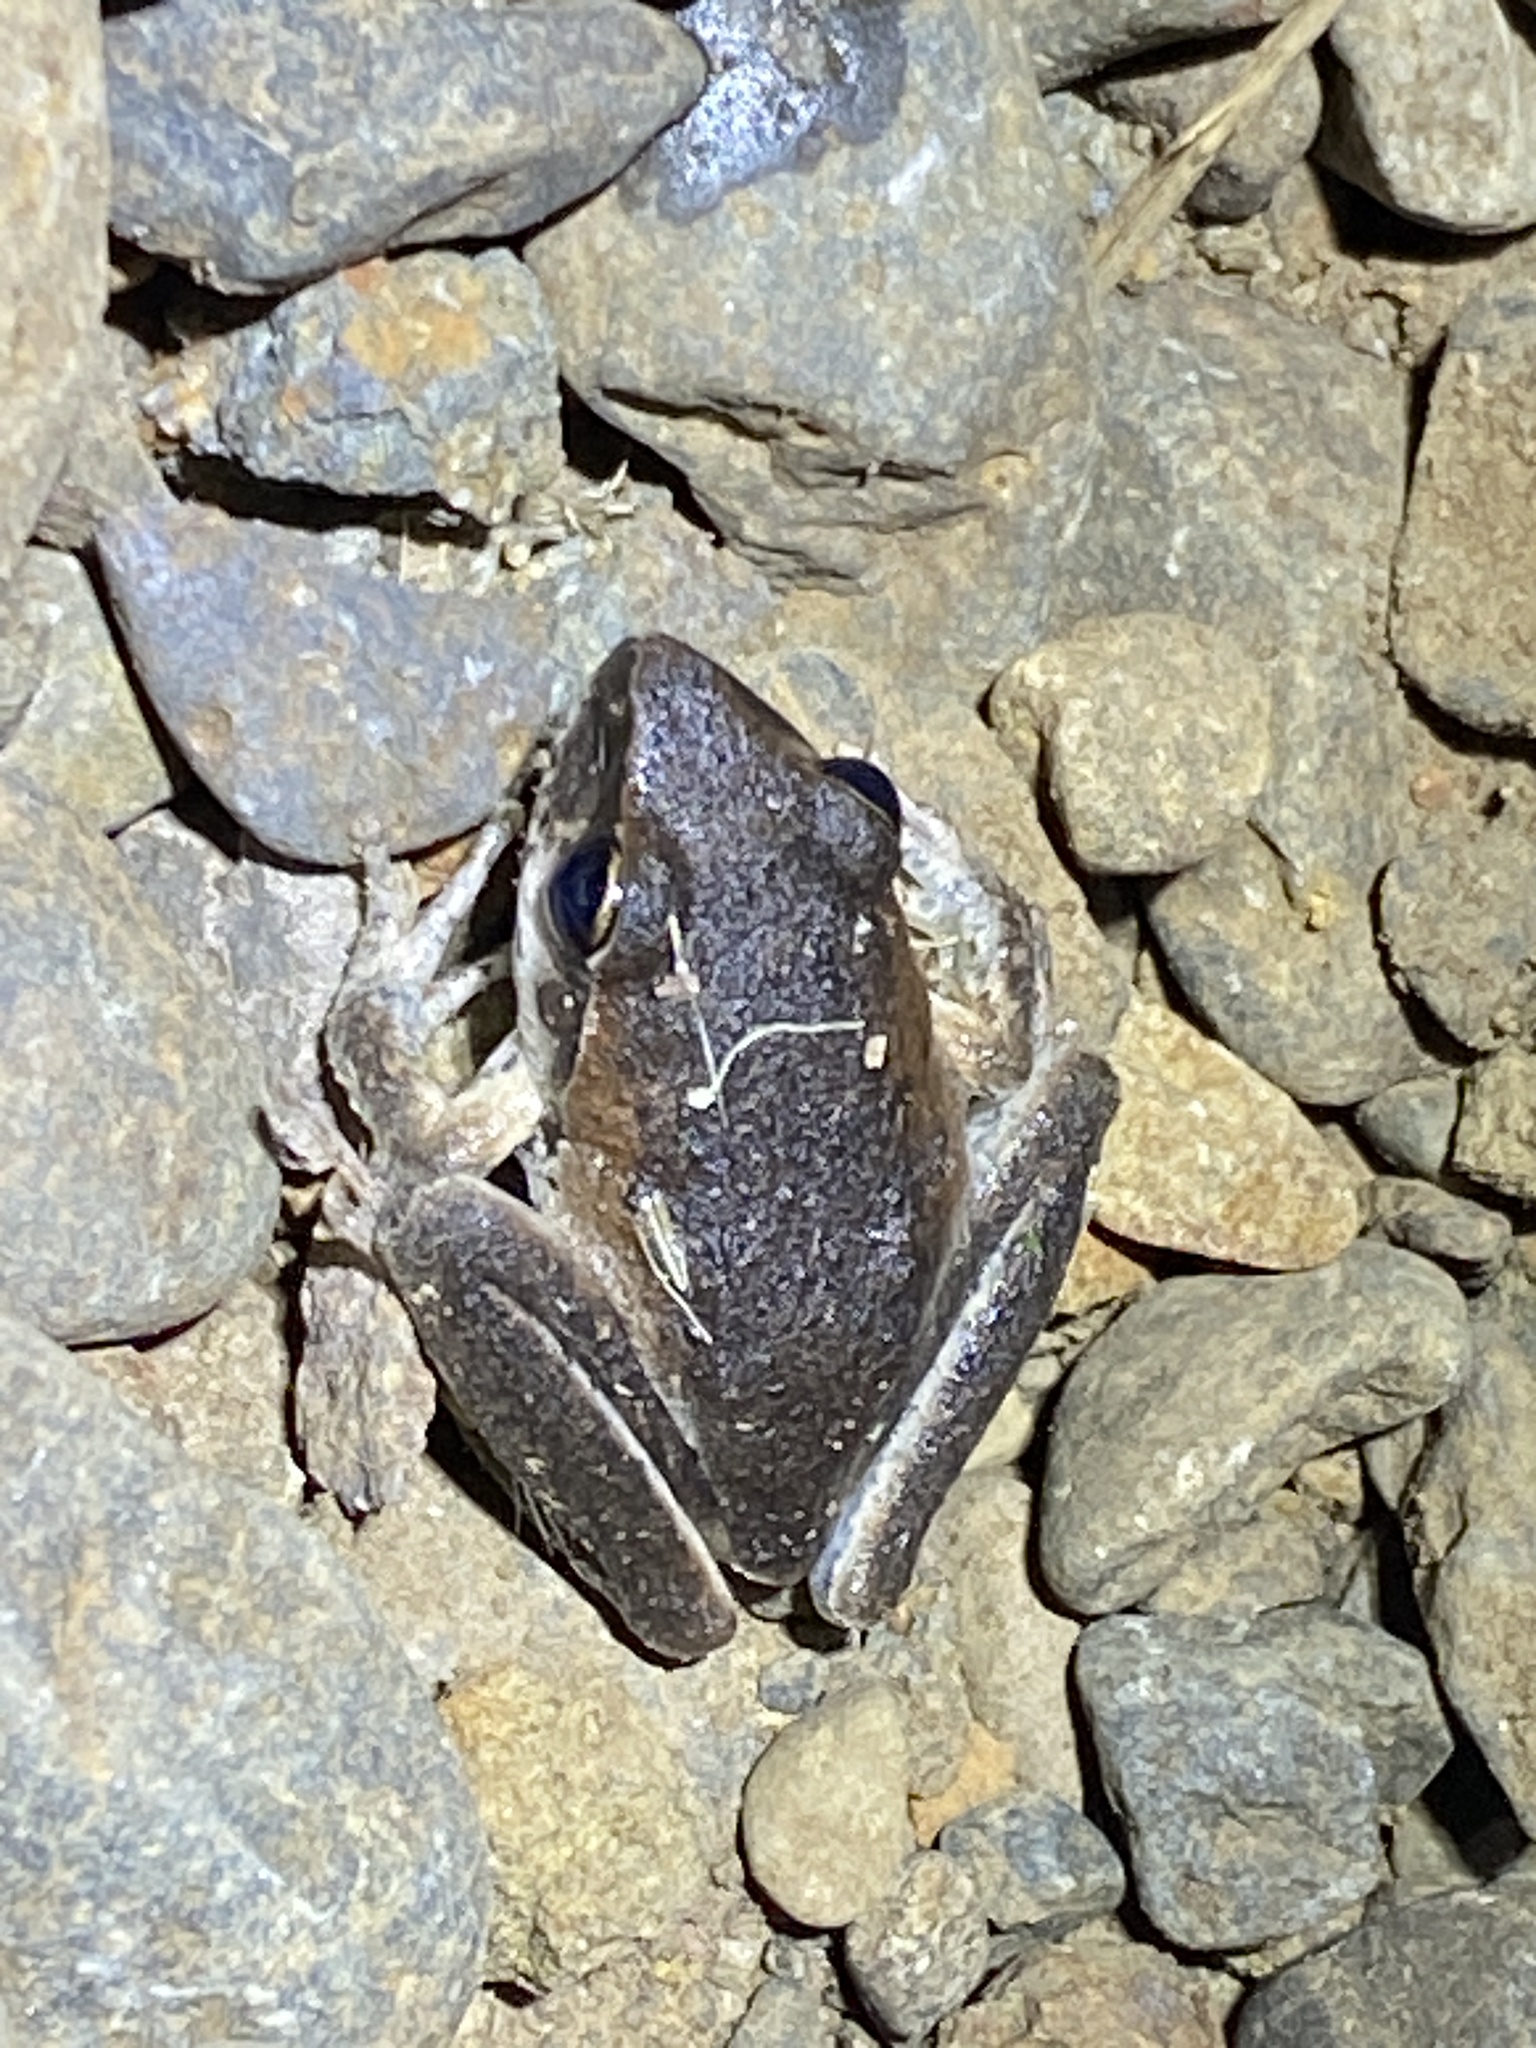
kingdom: Animalia
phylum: Chordata
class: Amphibia
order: Anura
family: Pelodryadidae
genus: Ranoidea
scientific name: Ranoidea wilcoxii
